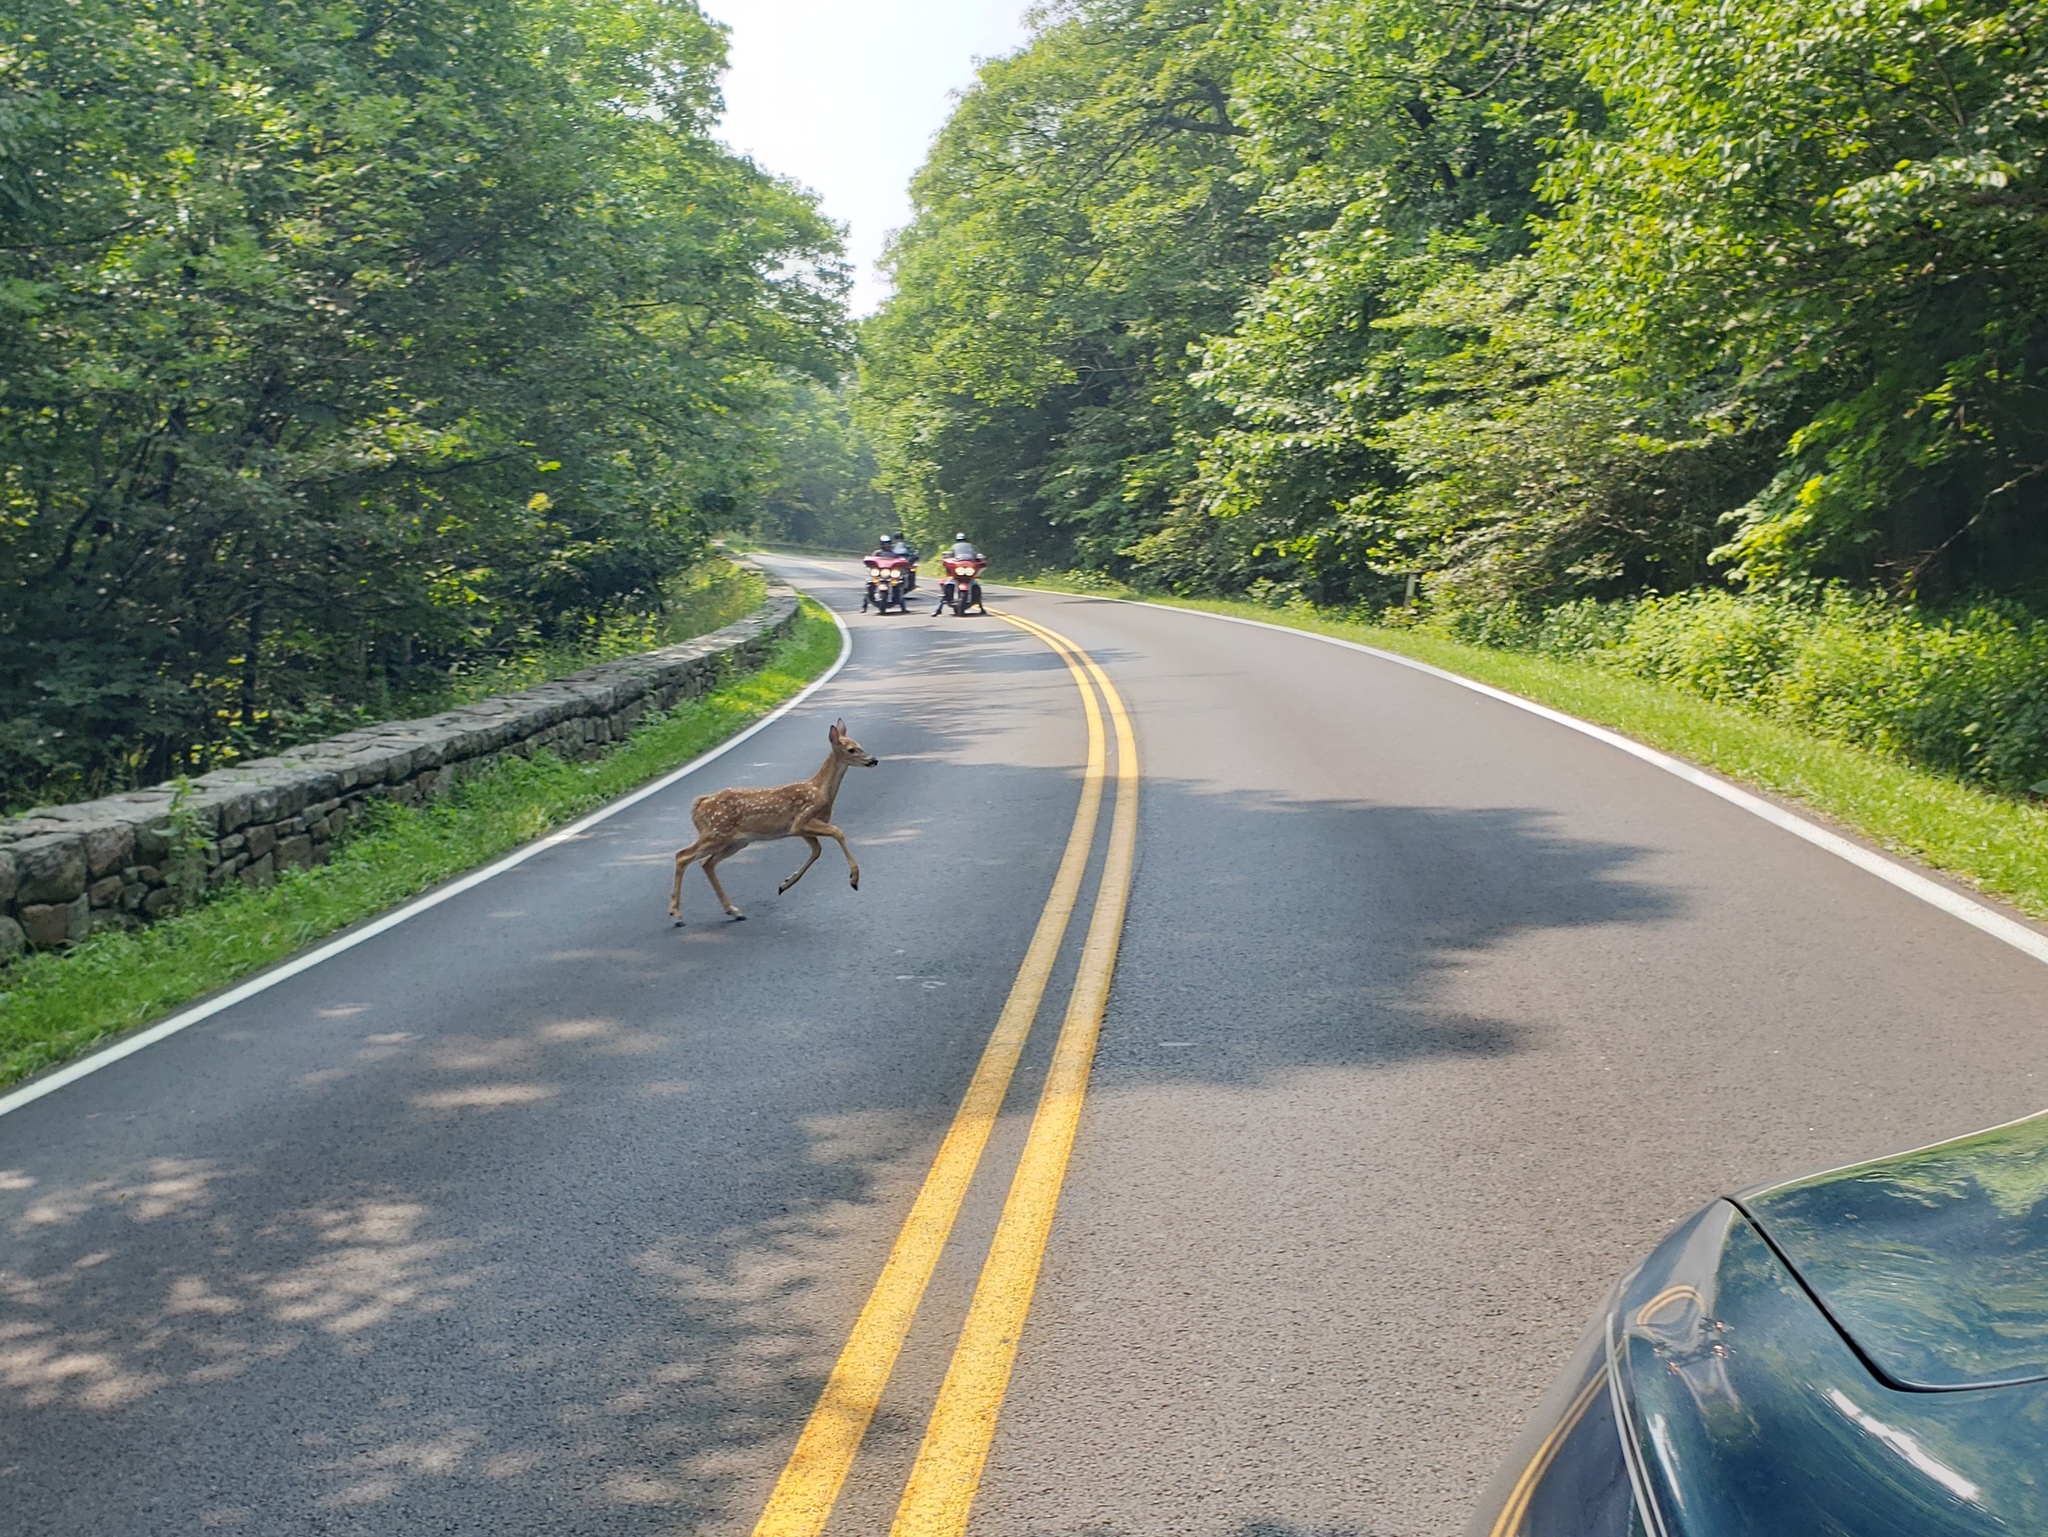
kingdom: Animalia
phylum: Chordata
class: Mammalia
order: Artiodactyla
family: Cervidae
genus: Odocoileus
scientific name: Odocoileus virginianus
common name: White-tailed deer
